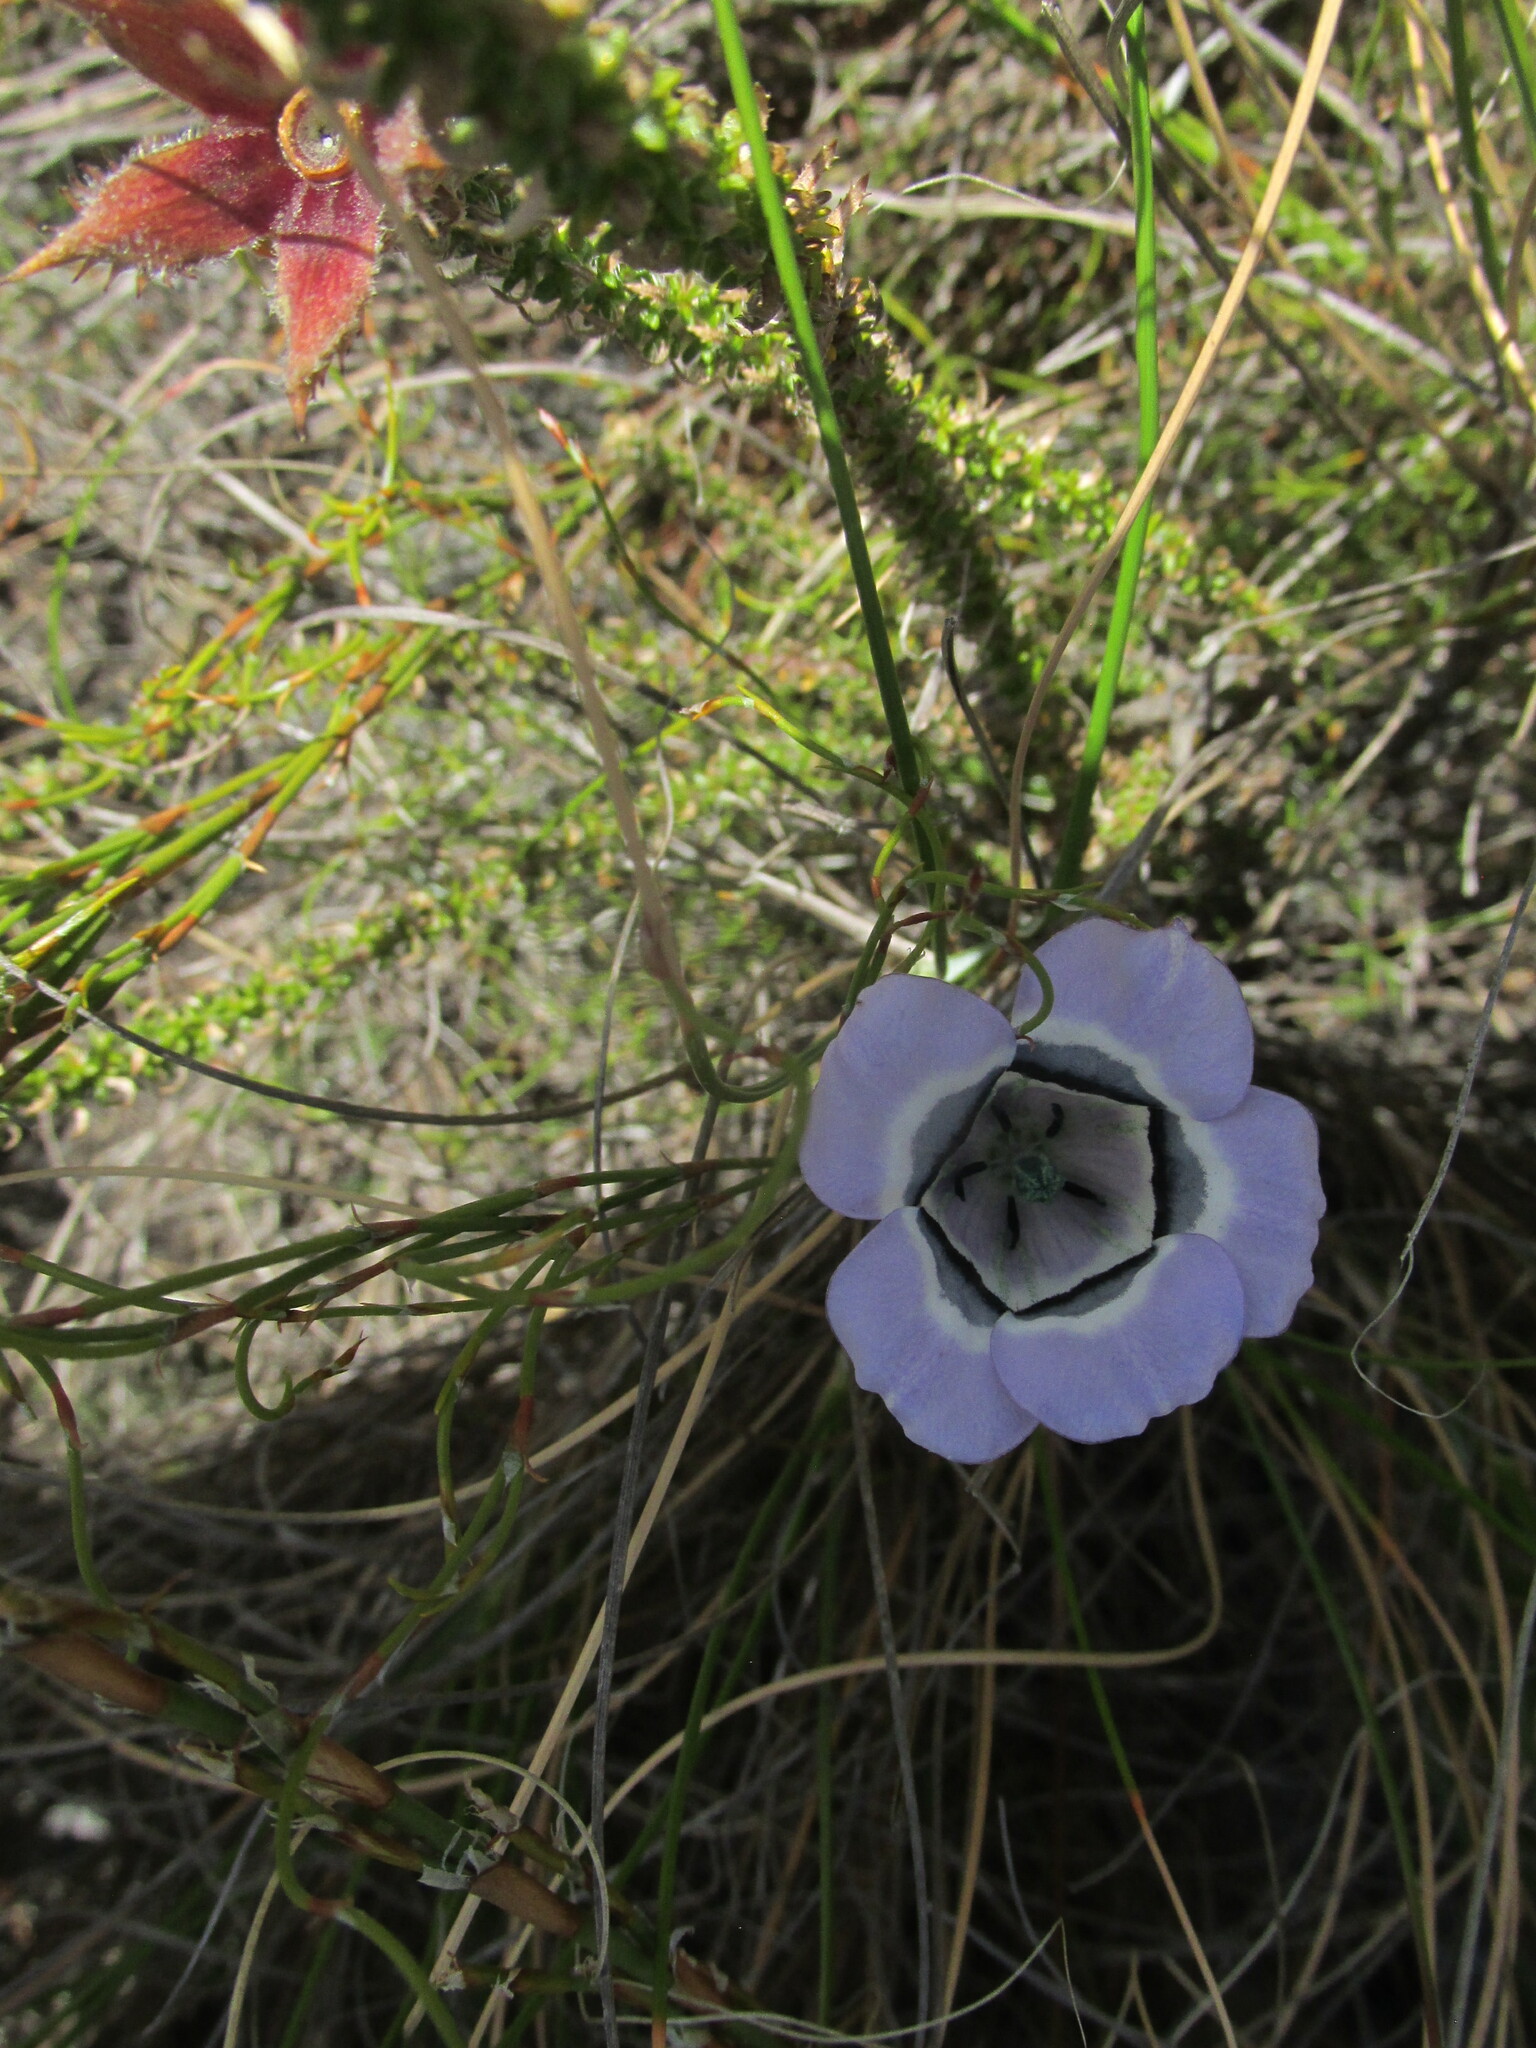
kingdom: Plantae
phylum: Tracheophyta
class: Magnoliopsida
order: Asterales
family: Campanulaceae
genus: Roella
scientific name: Roella ciliata
